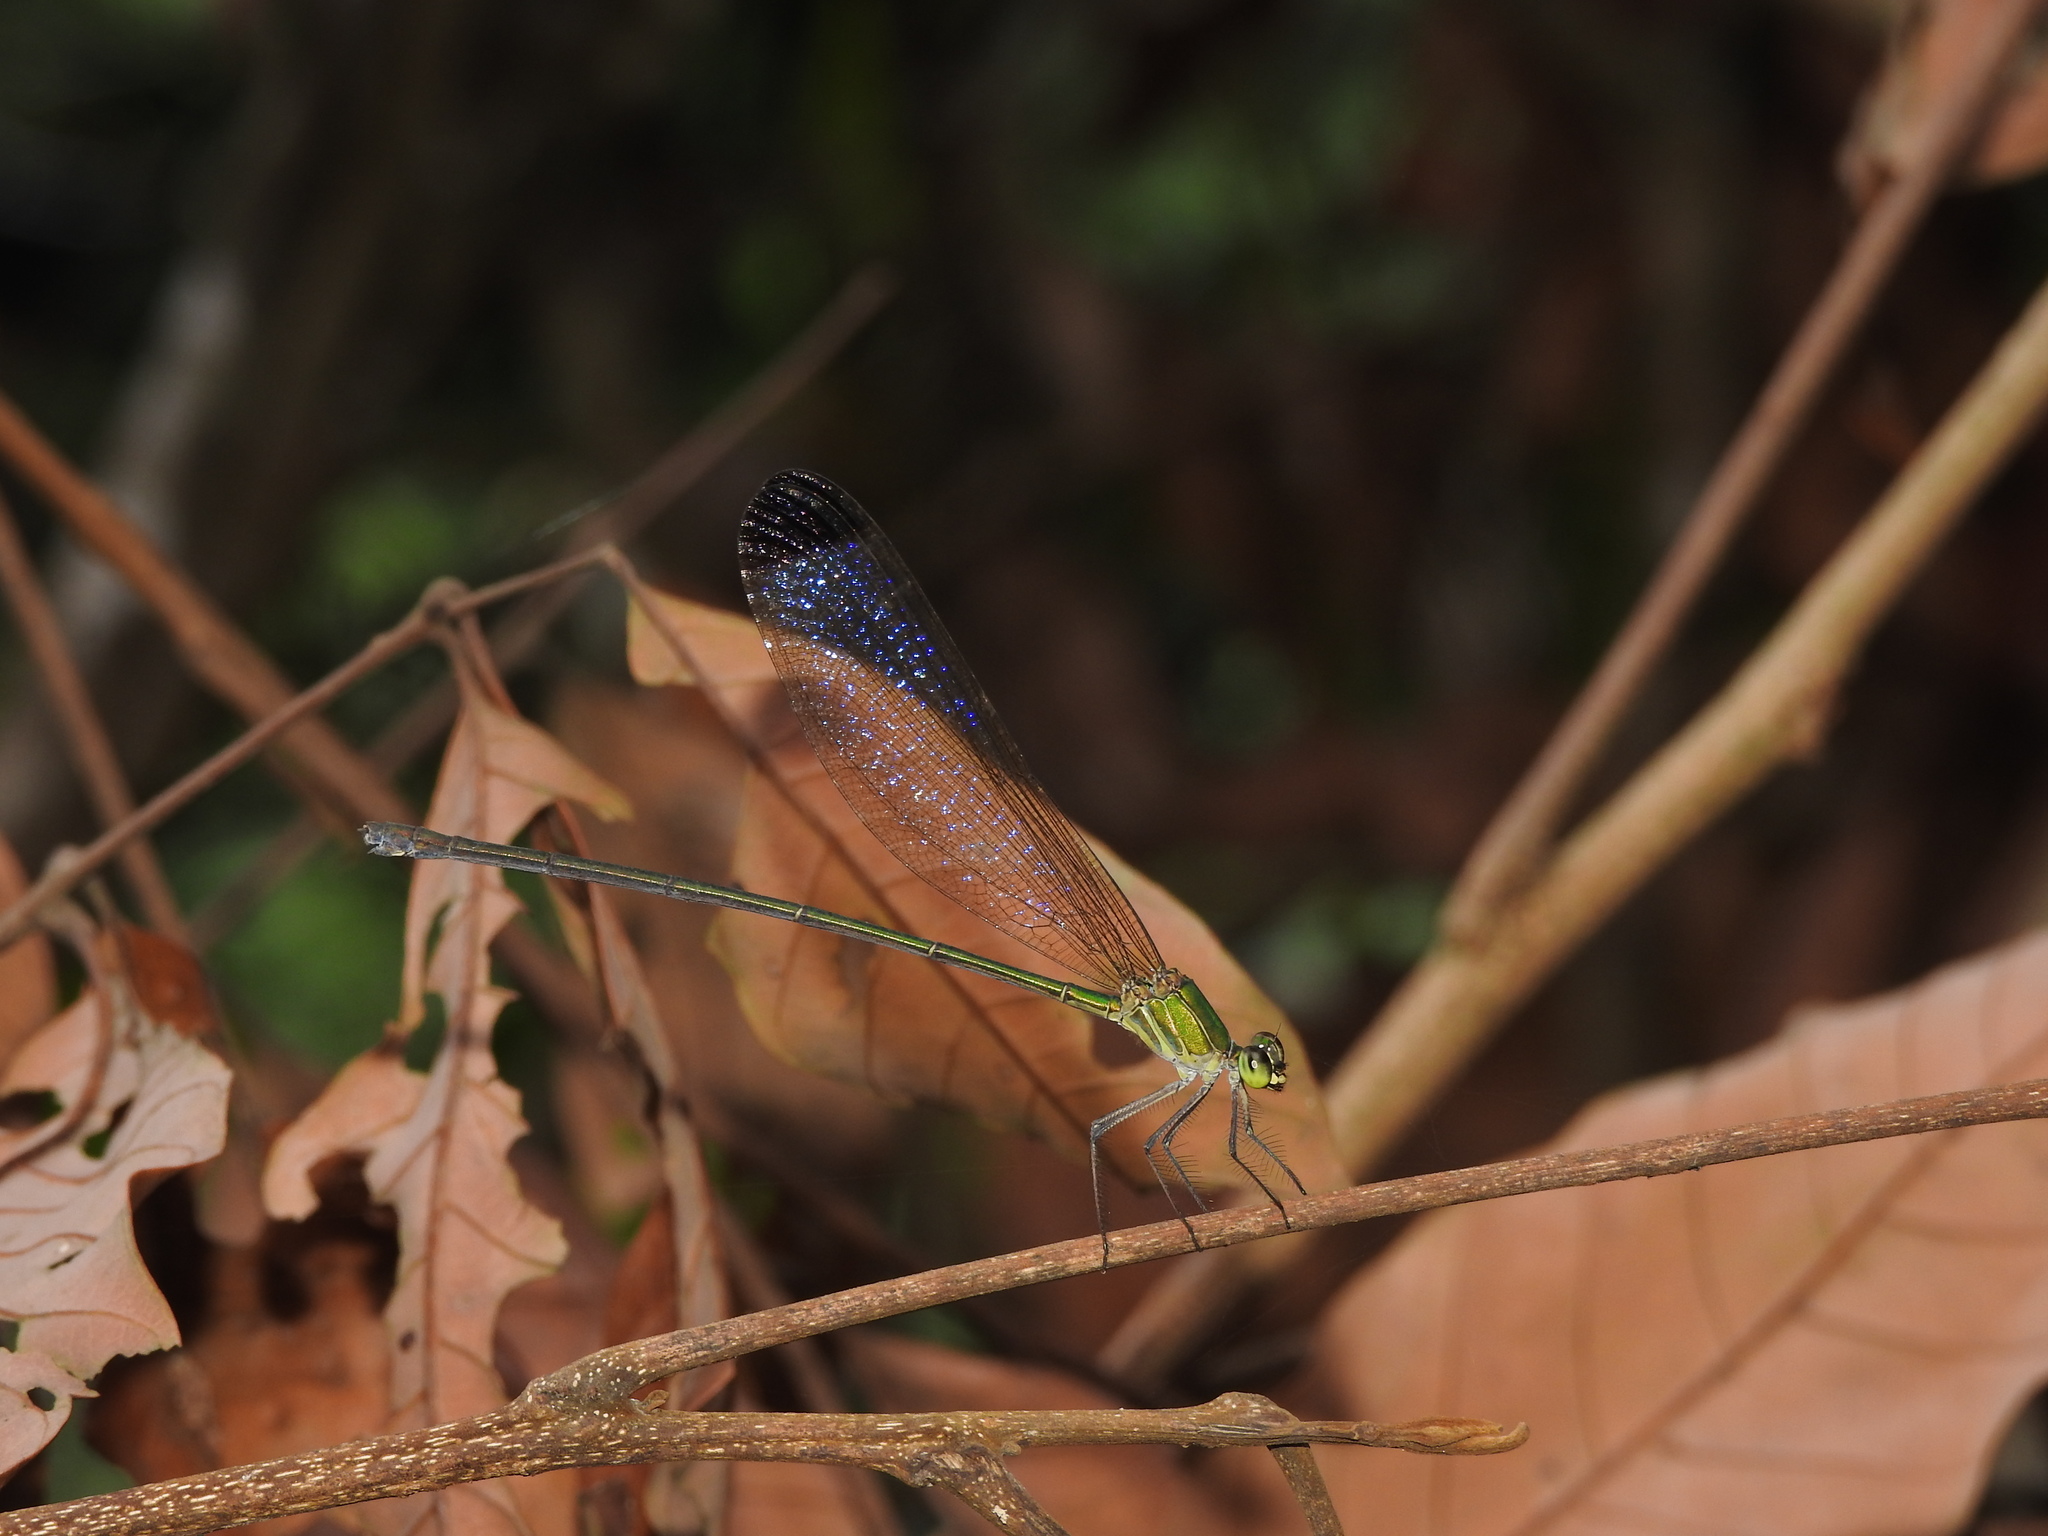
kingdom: Animalia
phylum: Arthropoda
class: Insecta
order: Odonata
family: Calopterygidae
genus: Vestalis
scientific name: Vestalis apicalis
